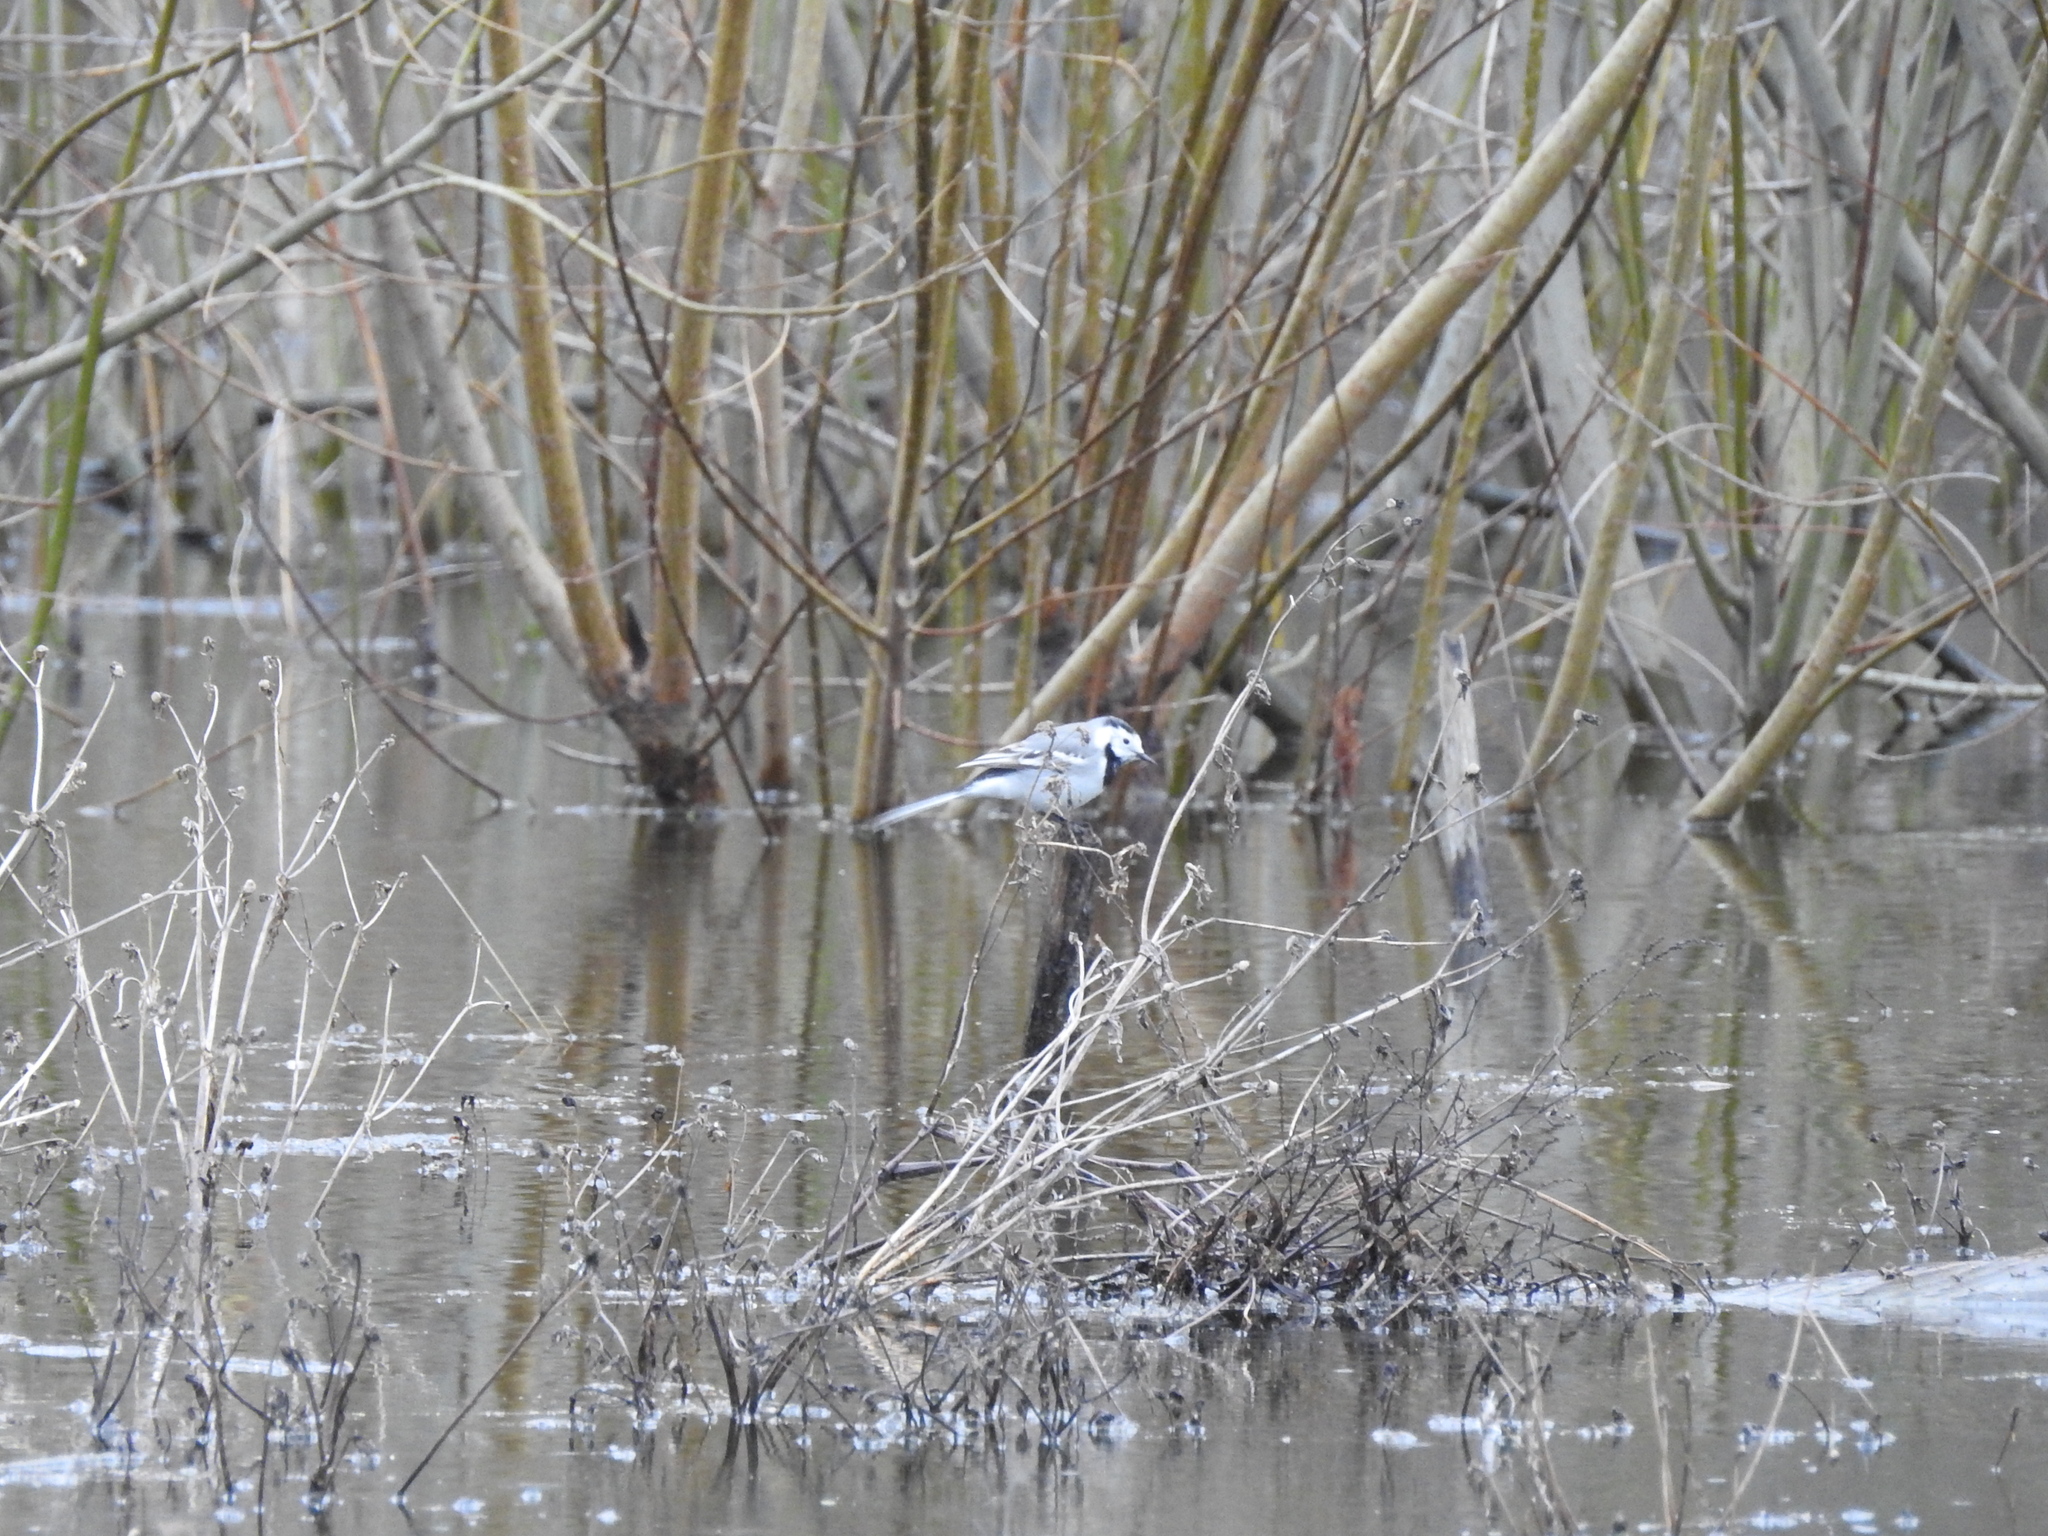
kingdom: Animalia
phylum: Chordata
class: Aves
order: Passeriformes
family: Motacillidae
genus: Motacilla
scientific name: Motacilla alba
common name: White wagtail
